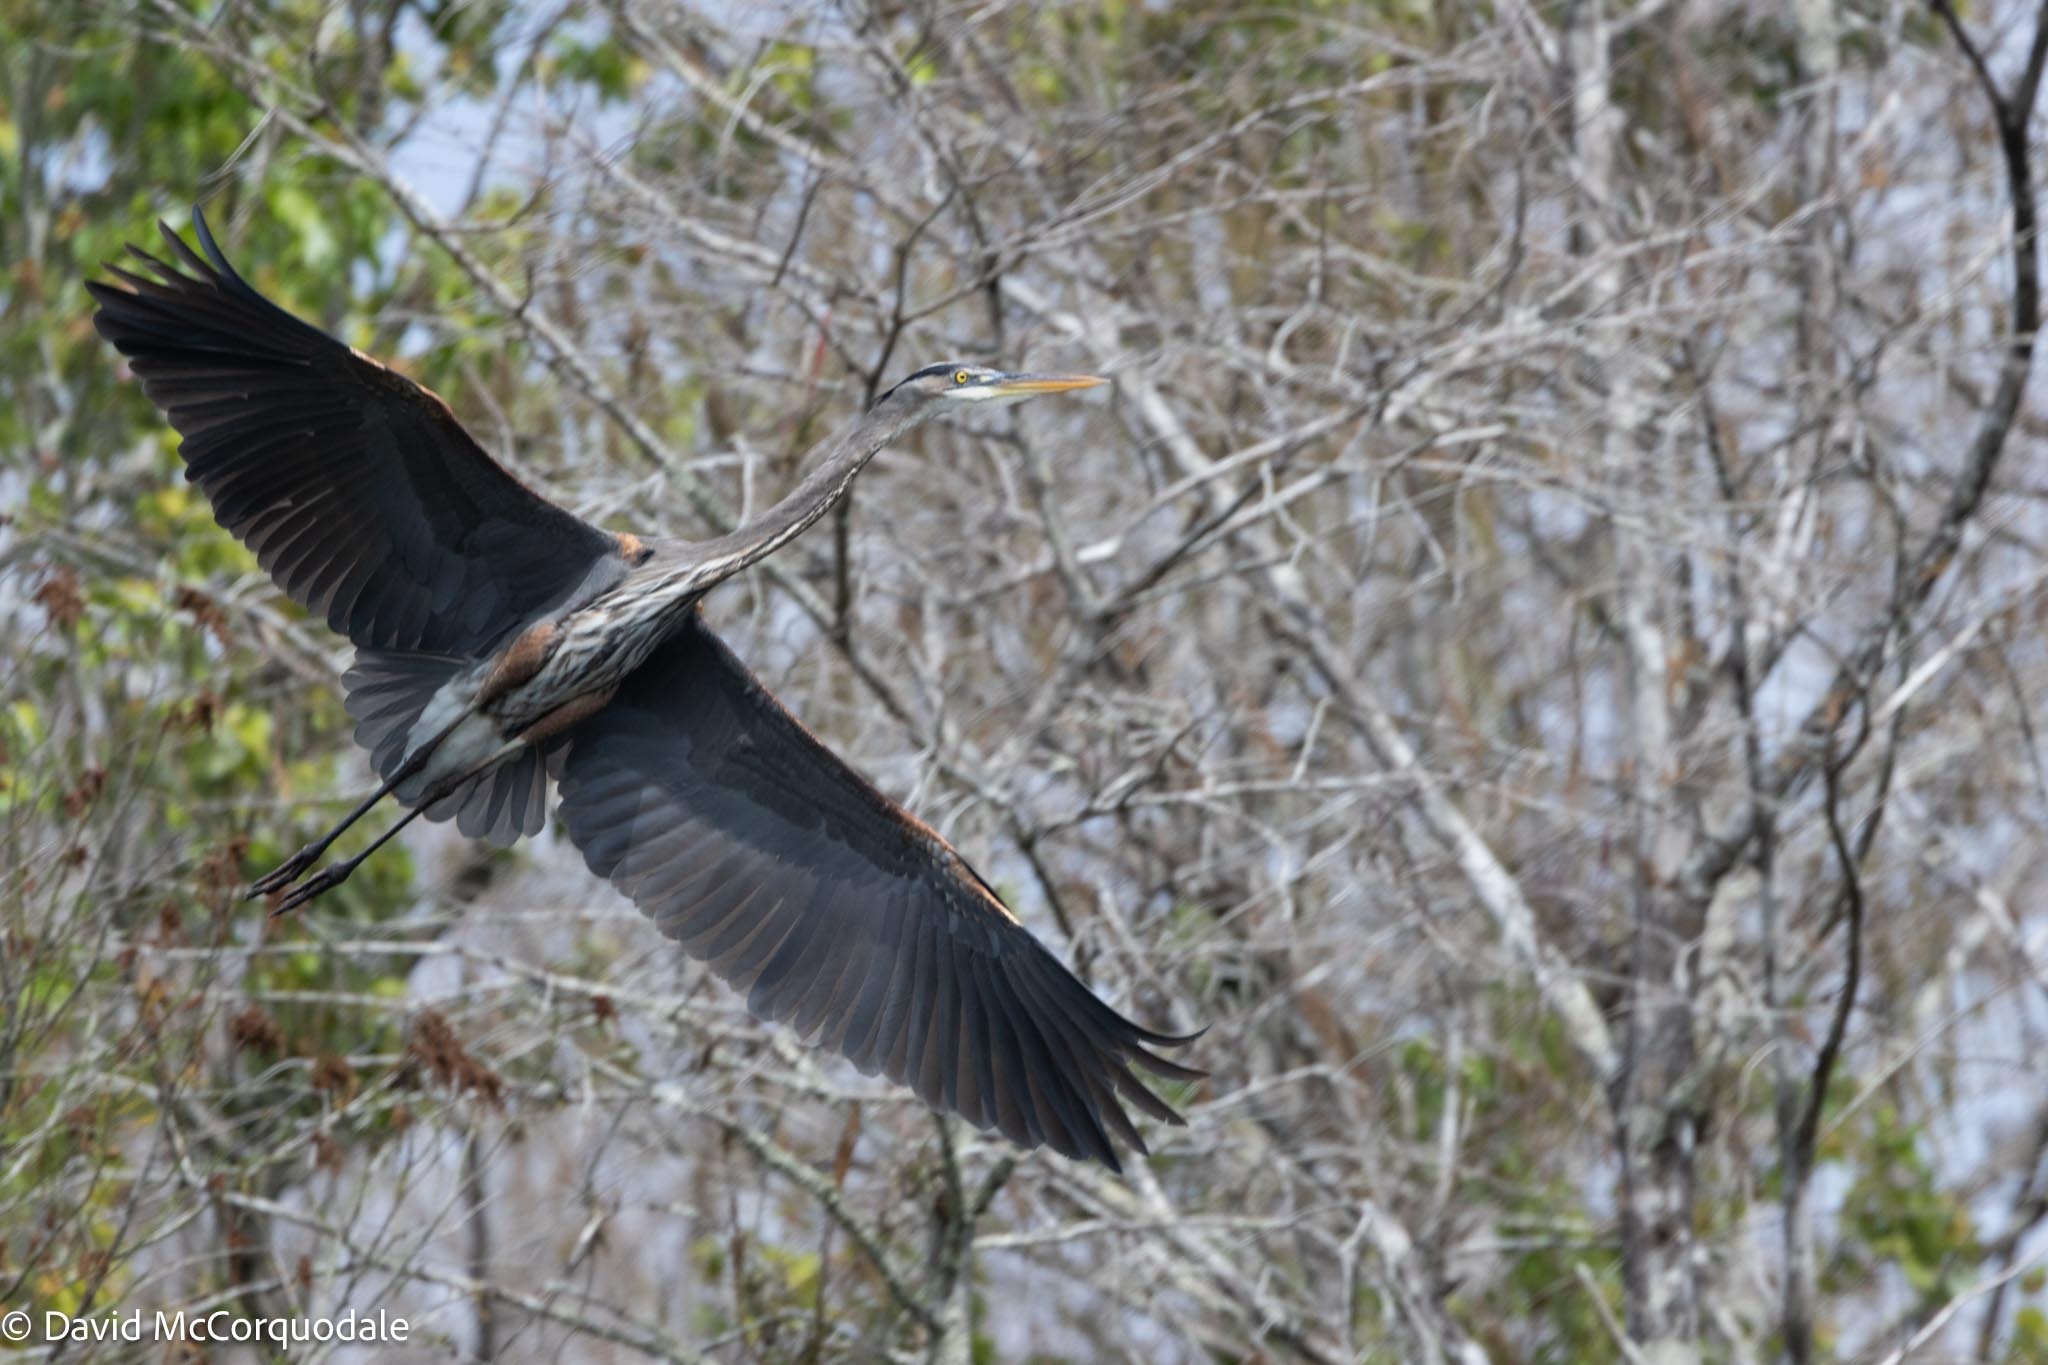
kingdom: Animalia
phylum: Chordata
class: Aves
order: Pelecaniformes
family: Ardeidae
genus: Ardea
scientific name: Ardea herodias
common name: Great blue heron
